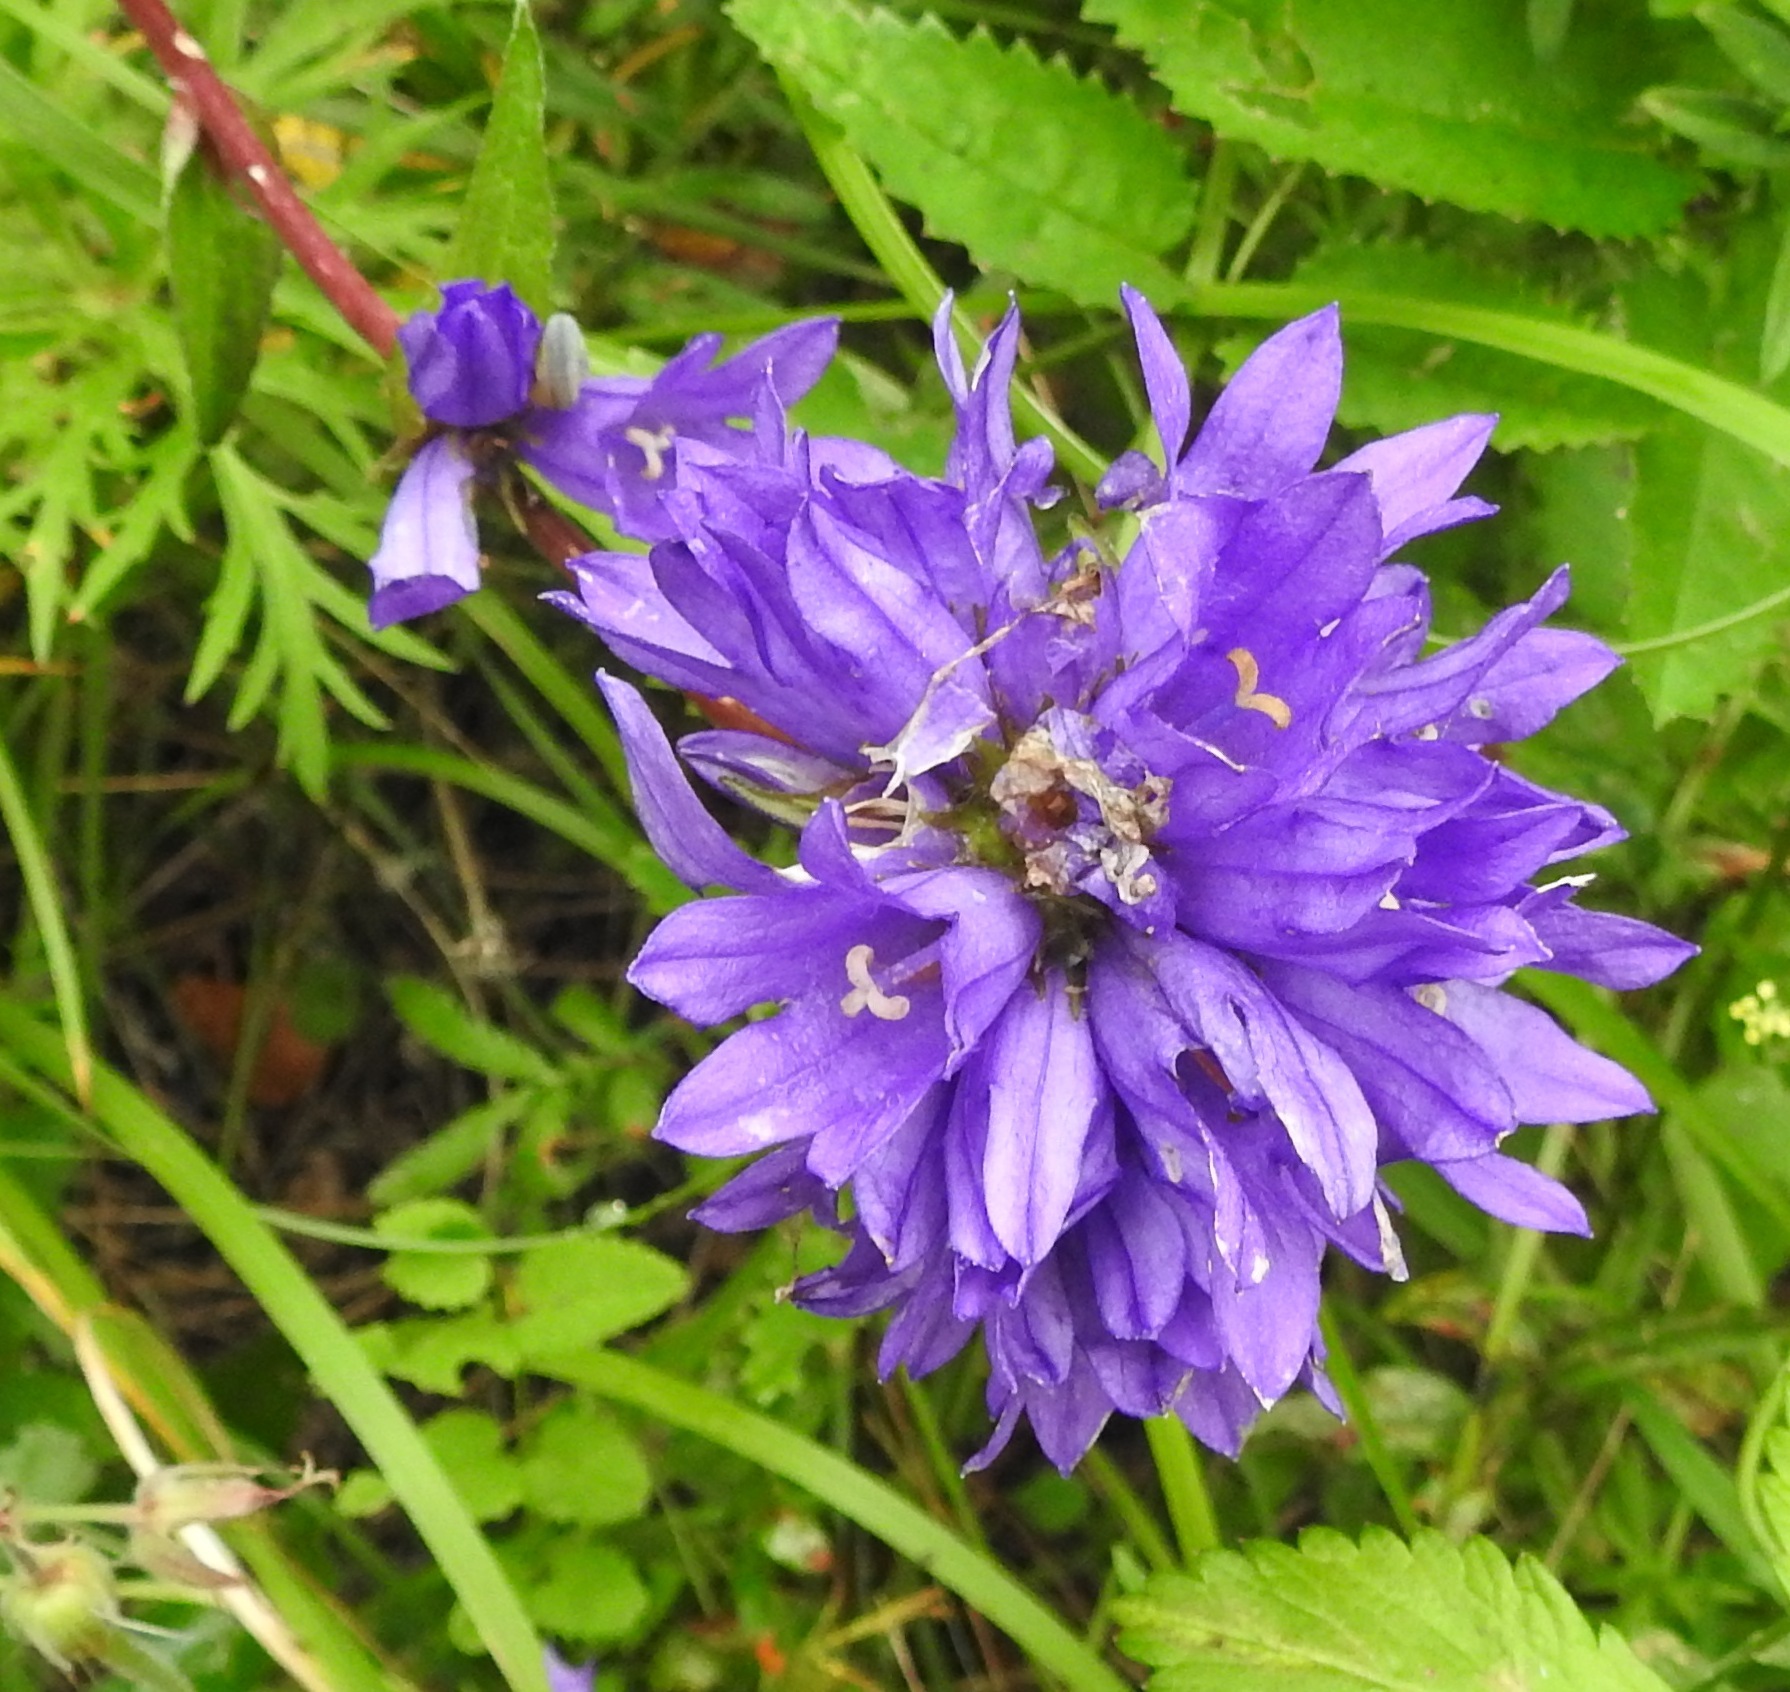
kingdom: Plantae
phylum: Tracheophyta
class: Magnoliopsida
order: Asterales
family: Campanulaceae
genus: Campanula
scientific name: Campanula glomerata
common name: Clustered bellflower
